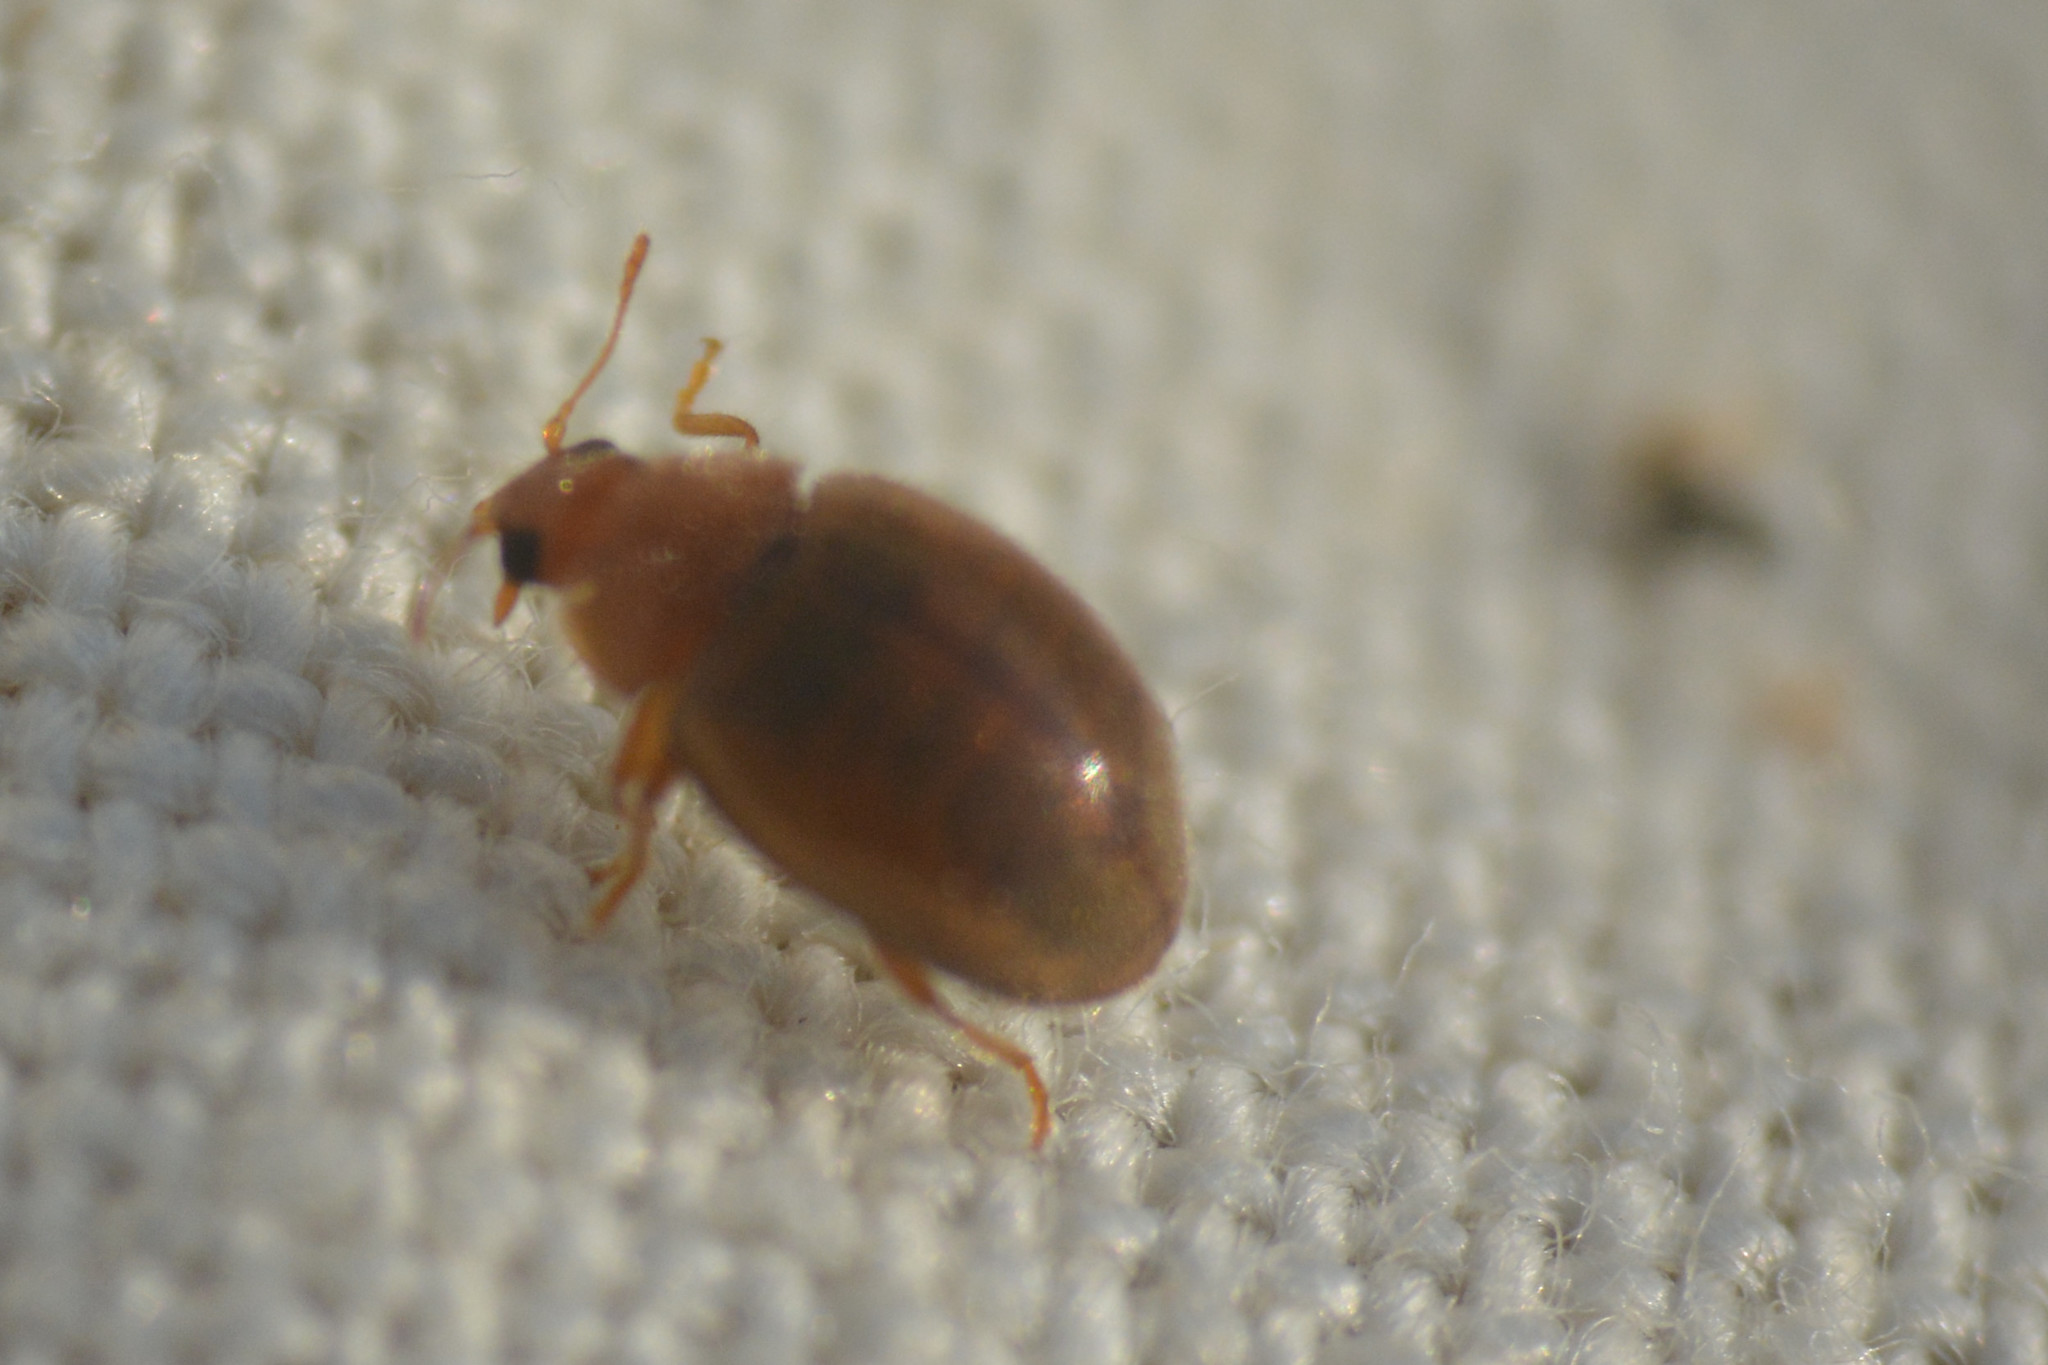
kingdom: Animalia
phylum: Arthropoda
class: Insecta
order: Coleoptera
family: Coccinellidae
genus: Rhyzobius
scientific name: Rhyzobius litura
